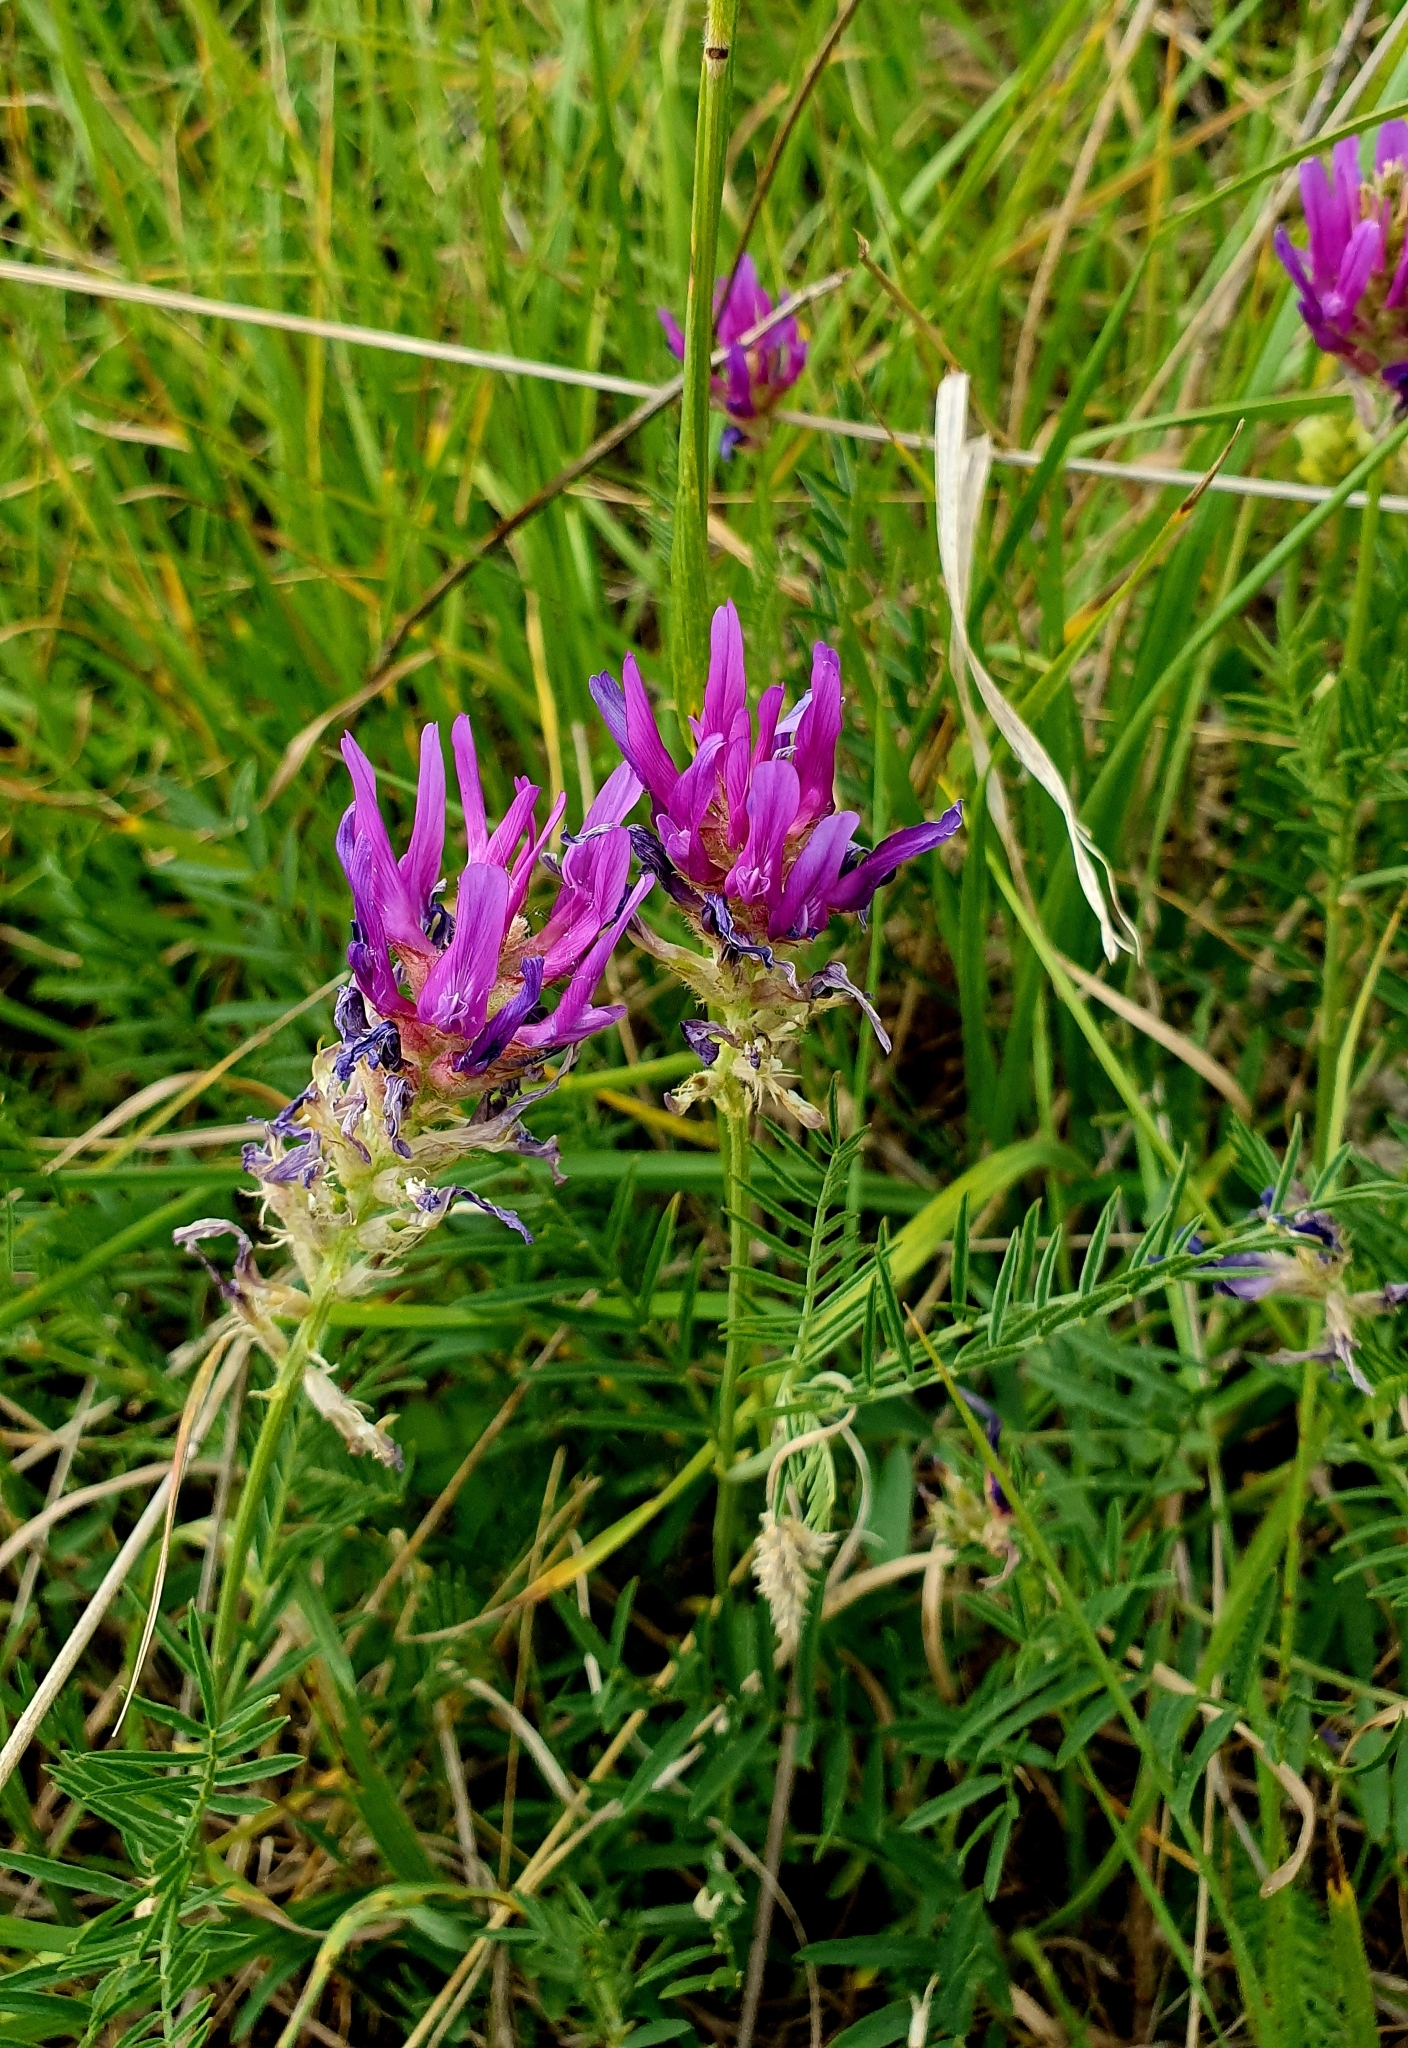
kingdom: Plantae
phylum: Tracheophyta
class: Magnoliopsida
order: Fabales
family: Fabaceae
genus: Astragalus
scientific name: Astragalus onobrychis
